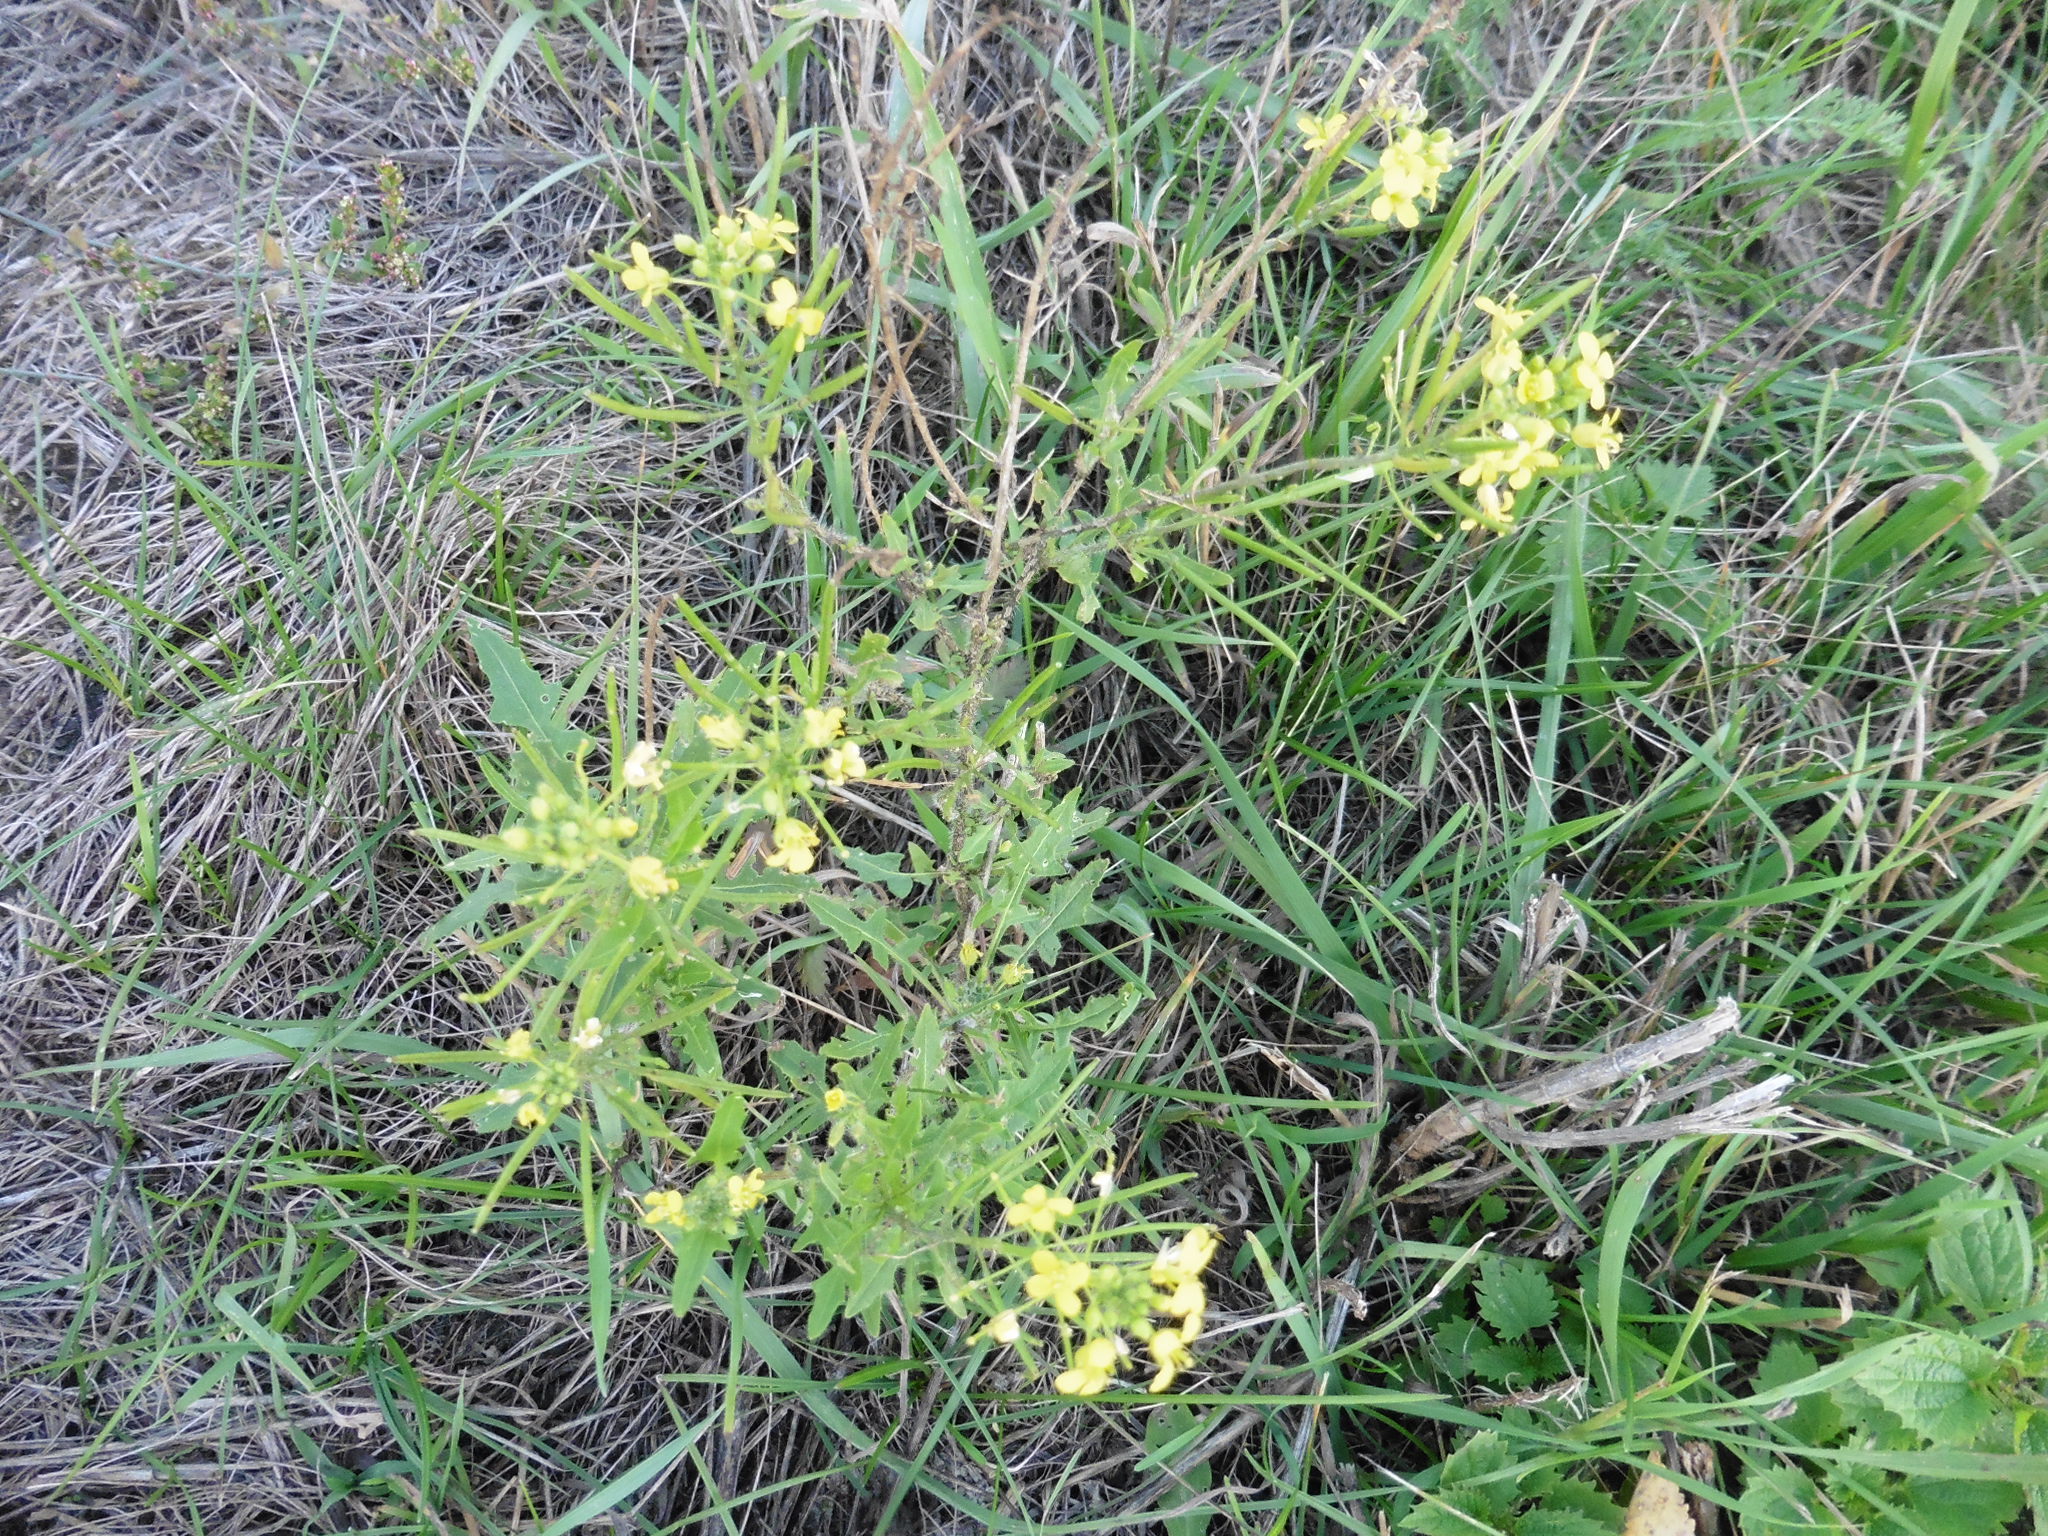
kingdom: Plantae
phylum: Tracheophyta
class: Magnoliopsida
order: Brassicales
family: Brassicaceae
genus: Sisymbrium
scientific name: Sisymbrium loeselii
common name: False london-rocket
